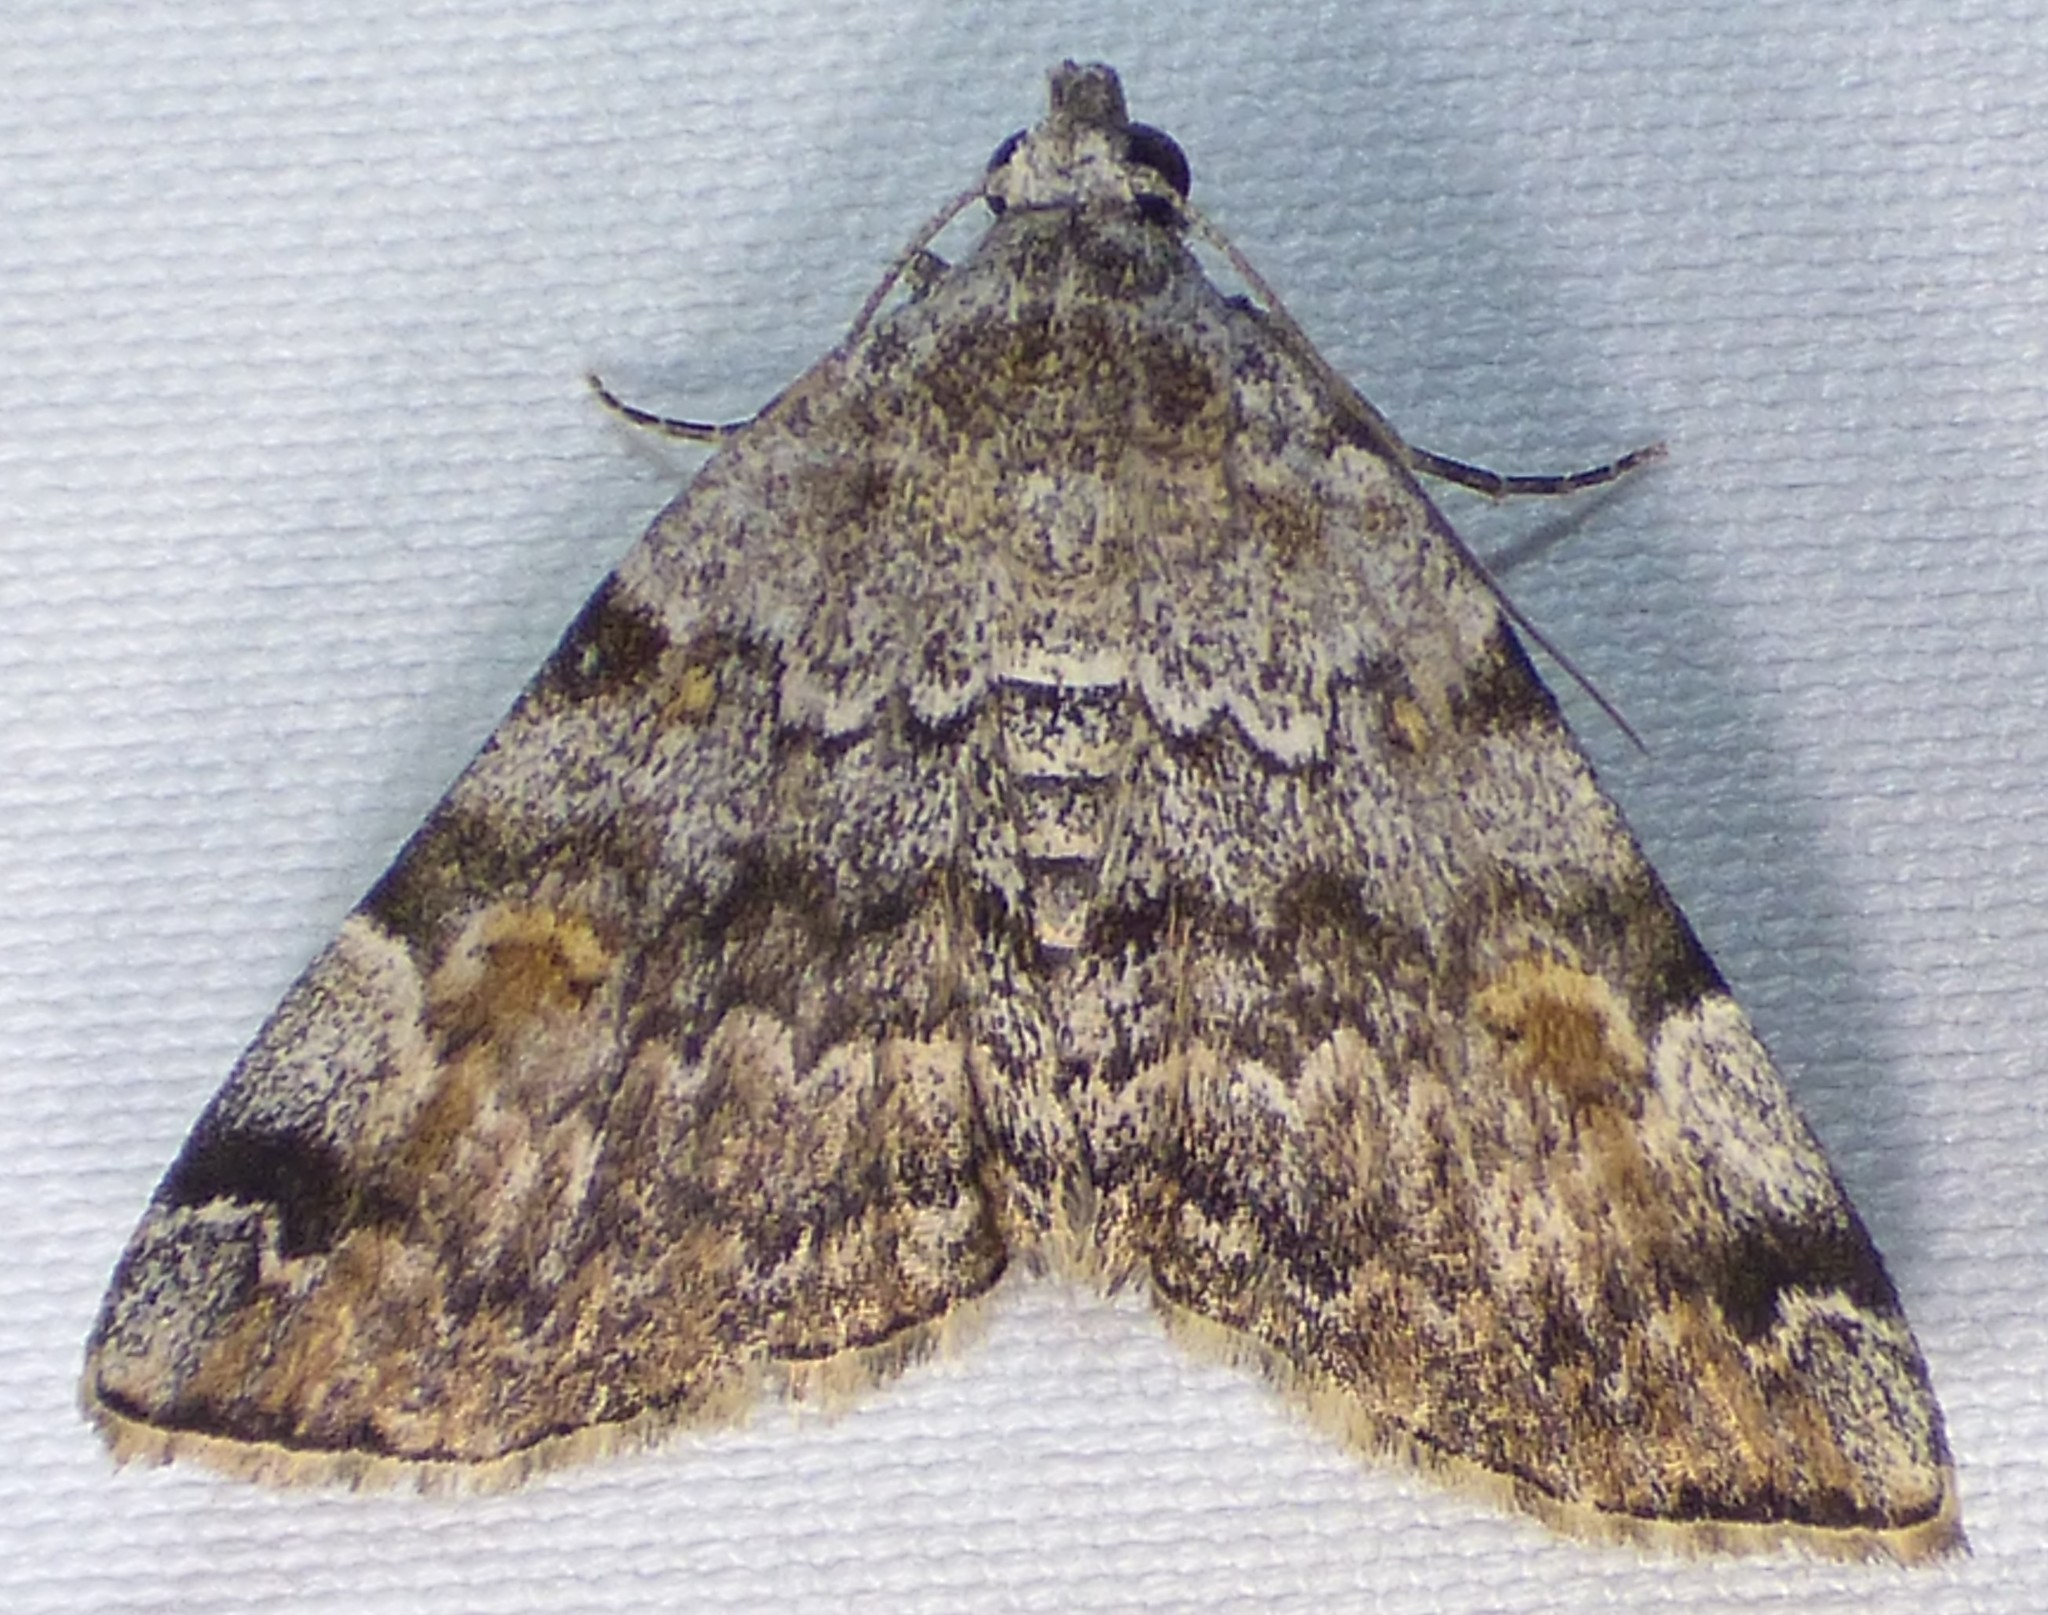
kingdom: Animalia
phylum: Arthropoda
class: Insecta
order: Lepidoptera
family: Erebidae
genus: Idia
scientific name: Idia americalis
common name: American idia moth
